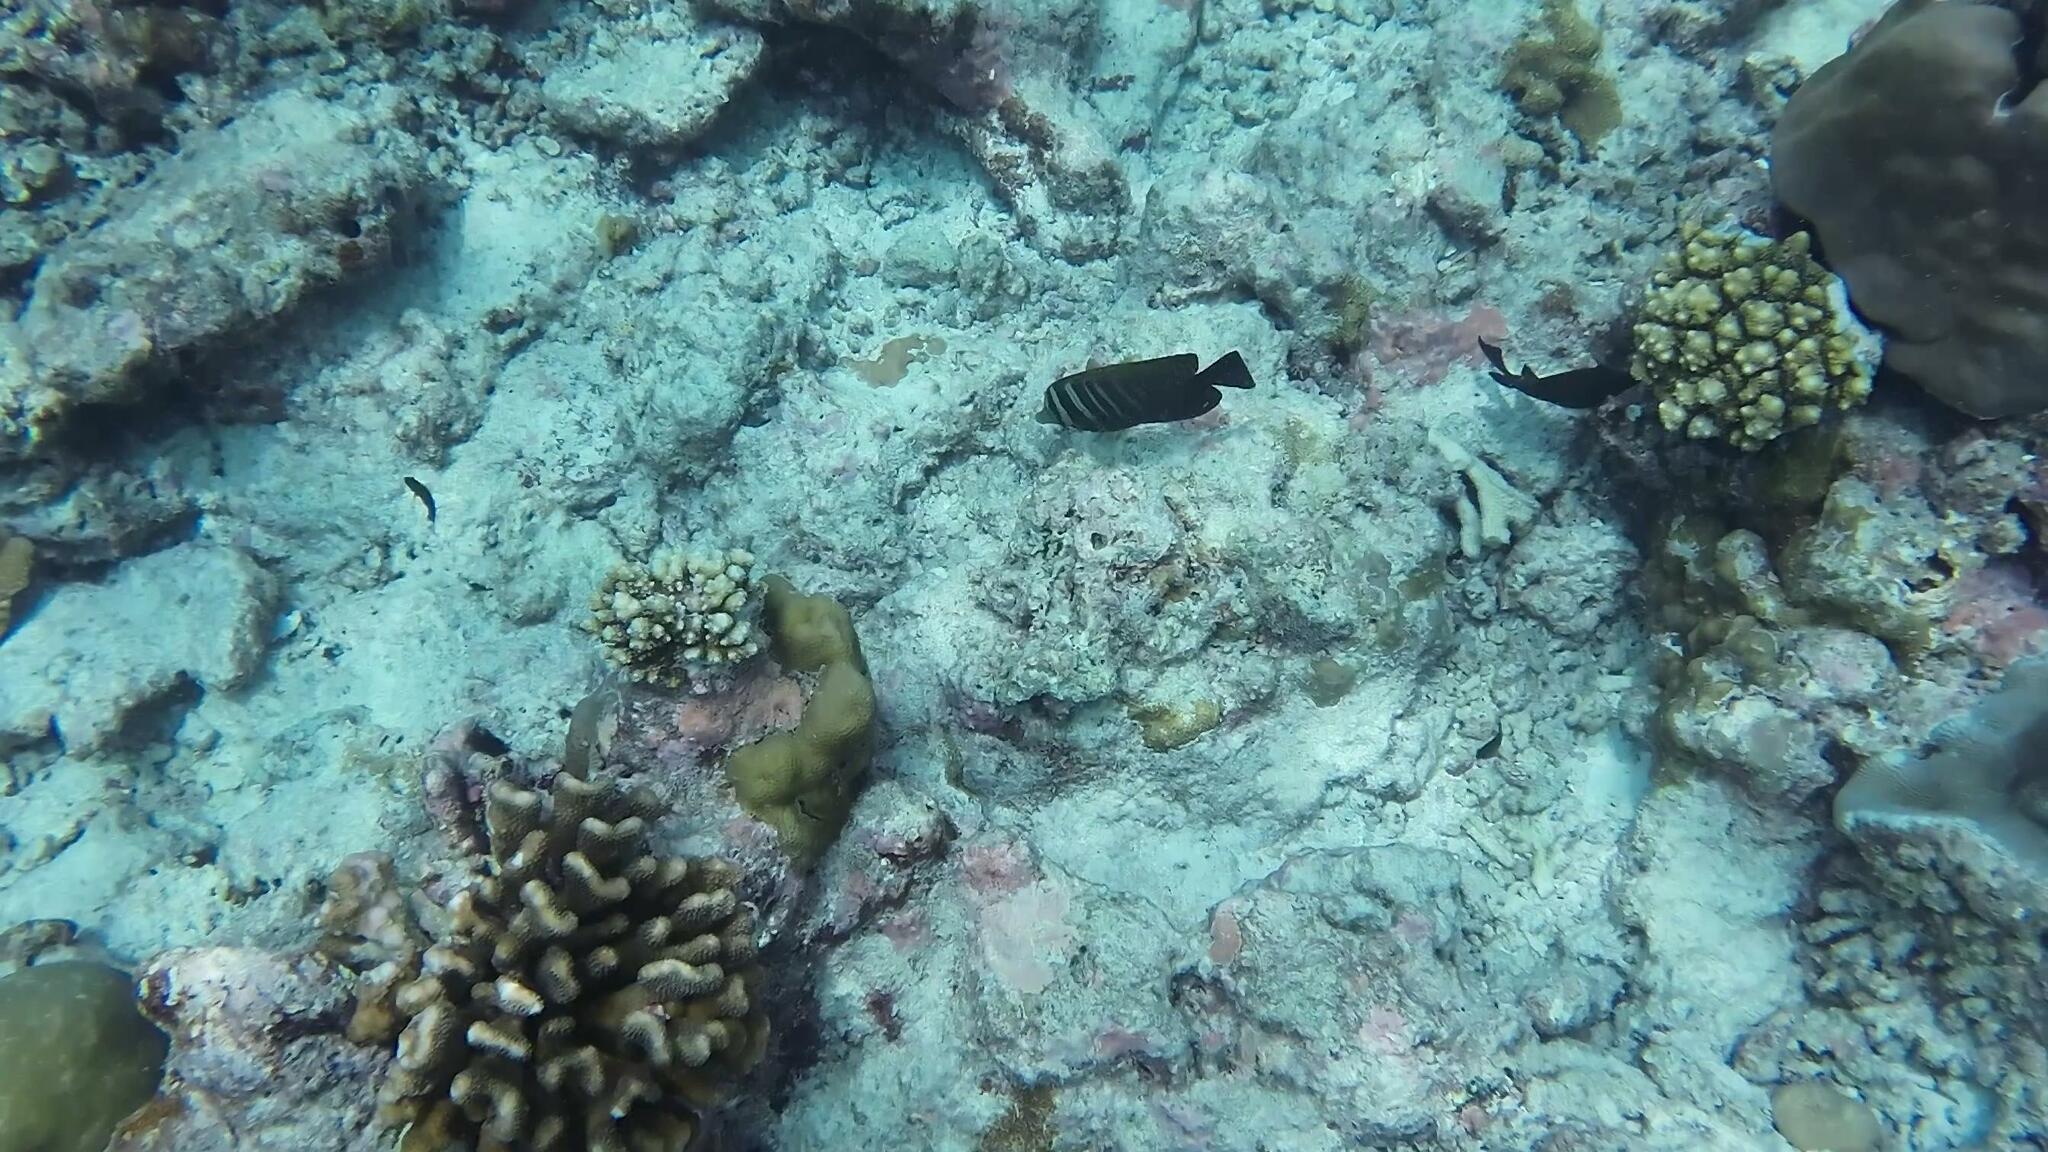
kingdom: Animalia
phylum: Chordata
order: Perciformes
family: Acanthuridae
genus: Zebrasoma
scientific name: Zebrasoma desjardinii
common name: Desjardin's sailfin tang
